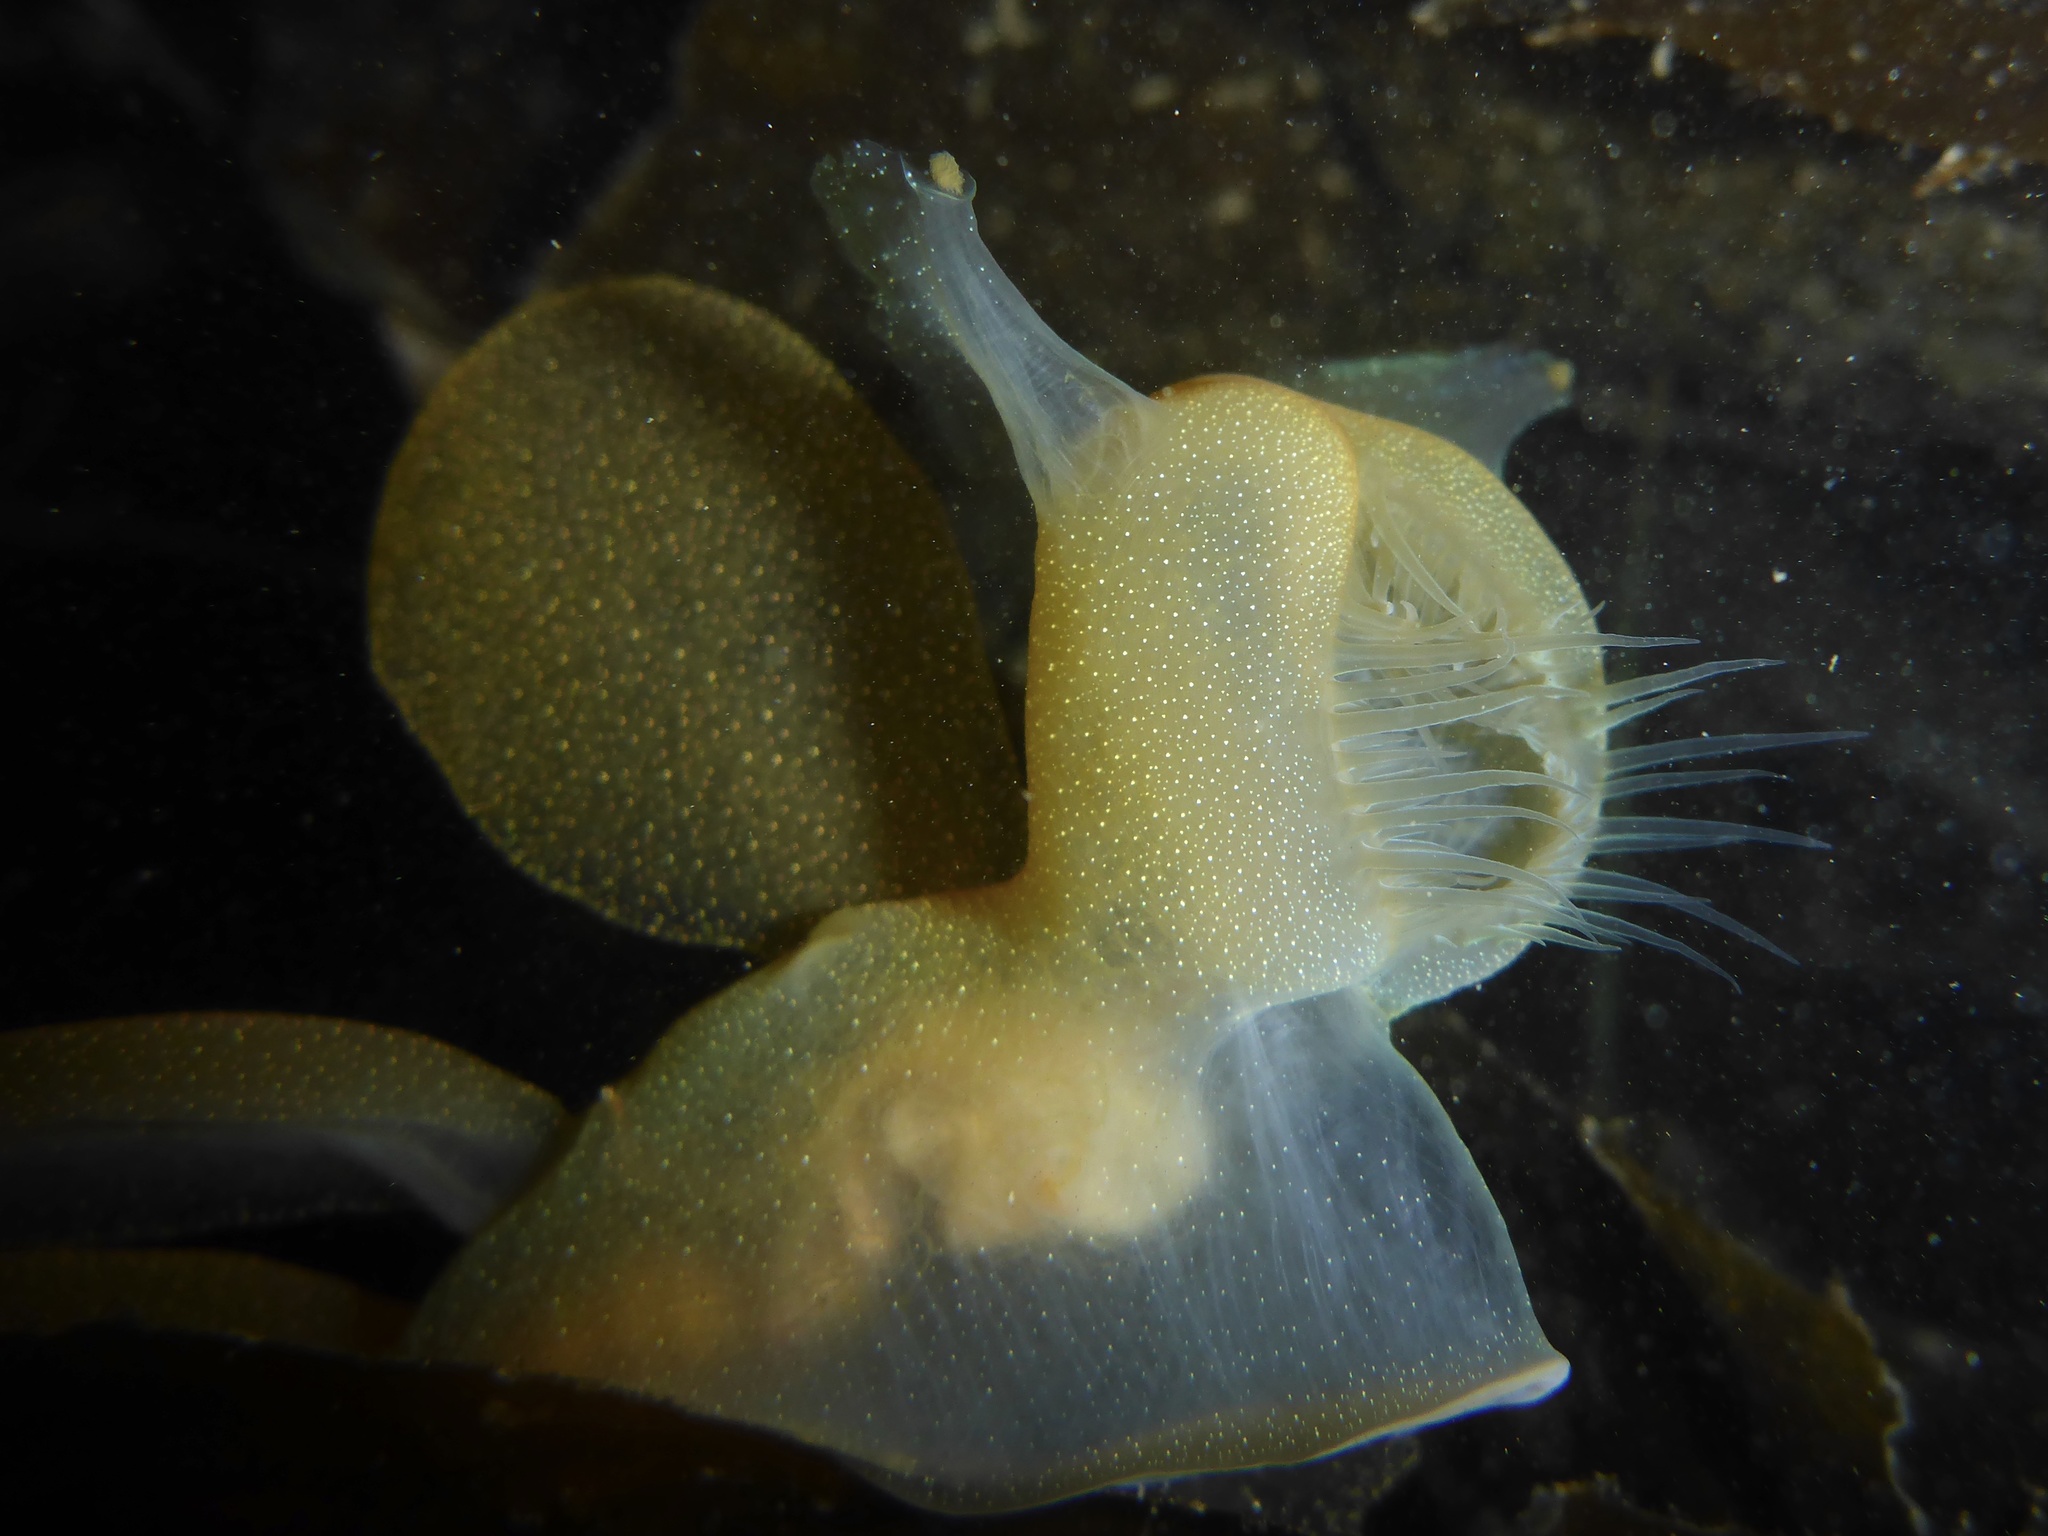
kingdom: Animalia
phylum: Mollusca
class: Gastropoda
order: Nudibranchia
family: Tethydidae
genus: Melibe
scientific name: Melibe leonina
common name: Lion nudibranch
